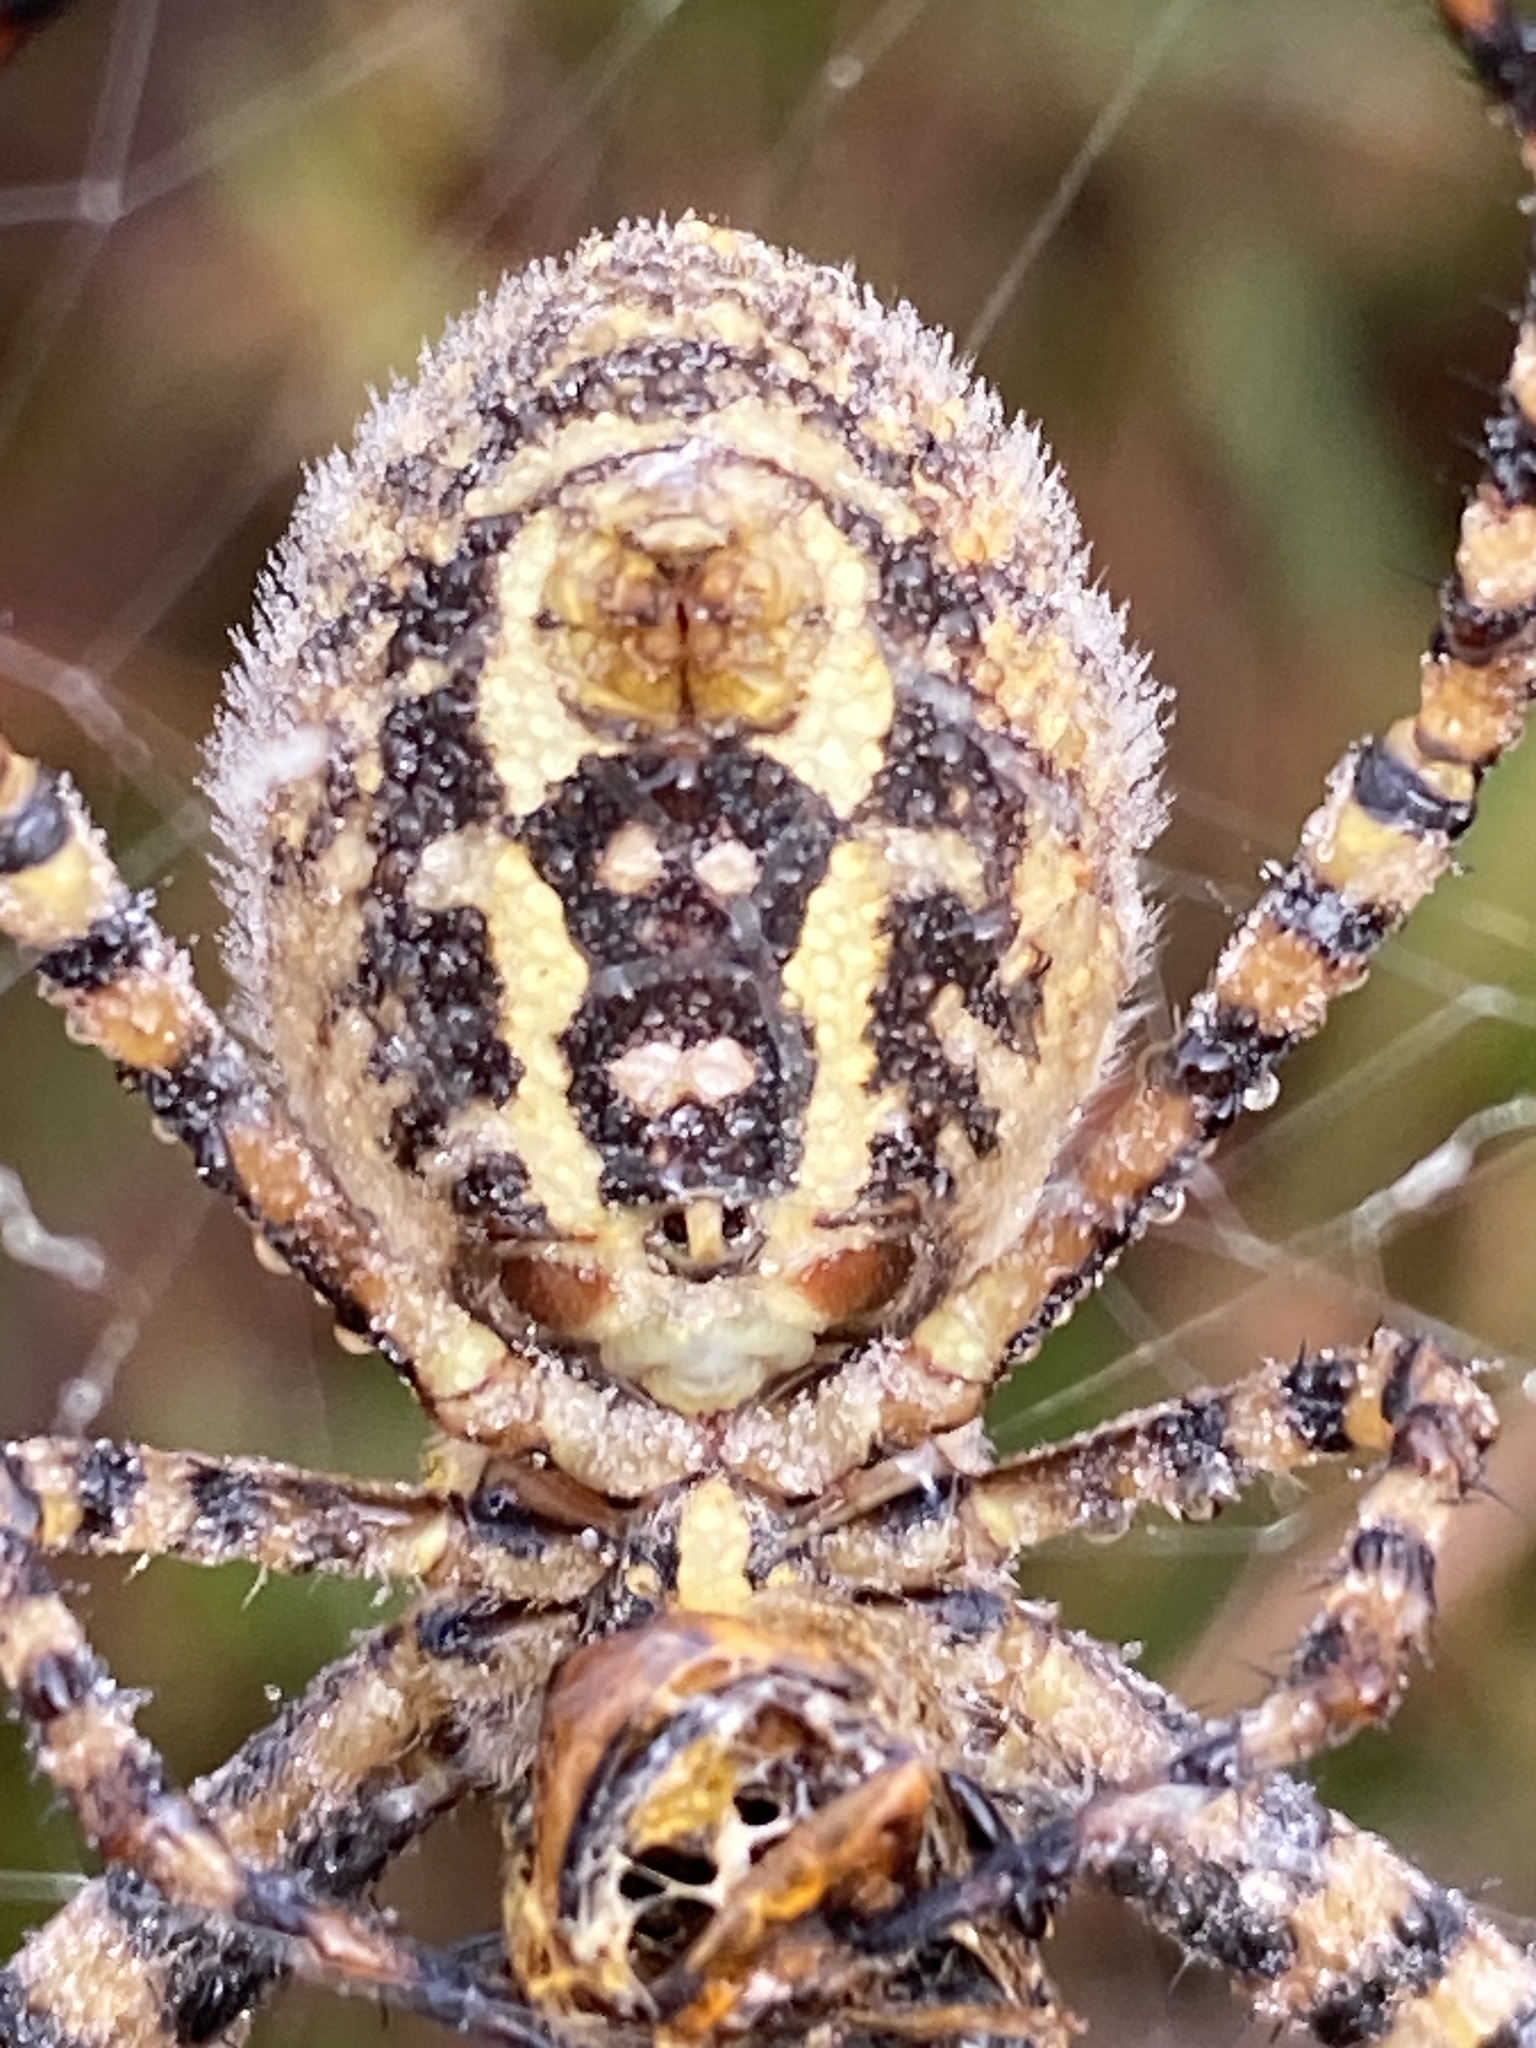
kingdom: Animalia
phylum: Arthropoda
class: Arachnida
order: Araneae
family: Araneidae
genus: Argiope
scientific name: Argiope trifasciata
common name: Banded garden spider
